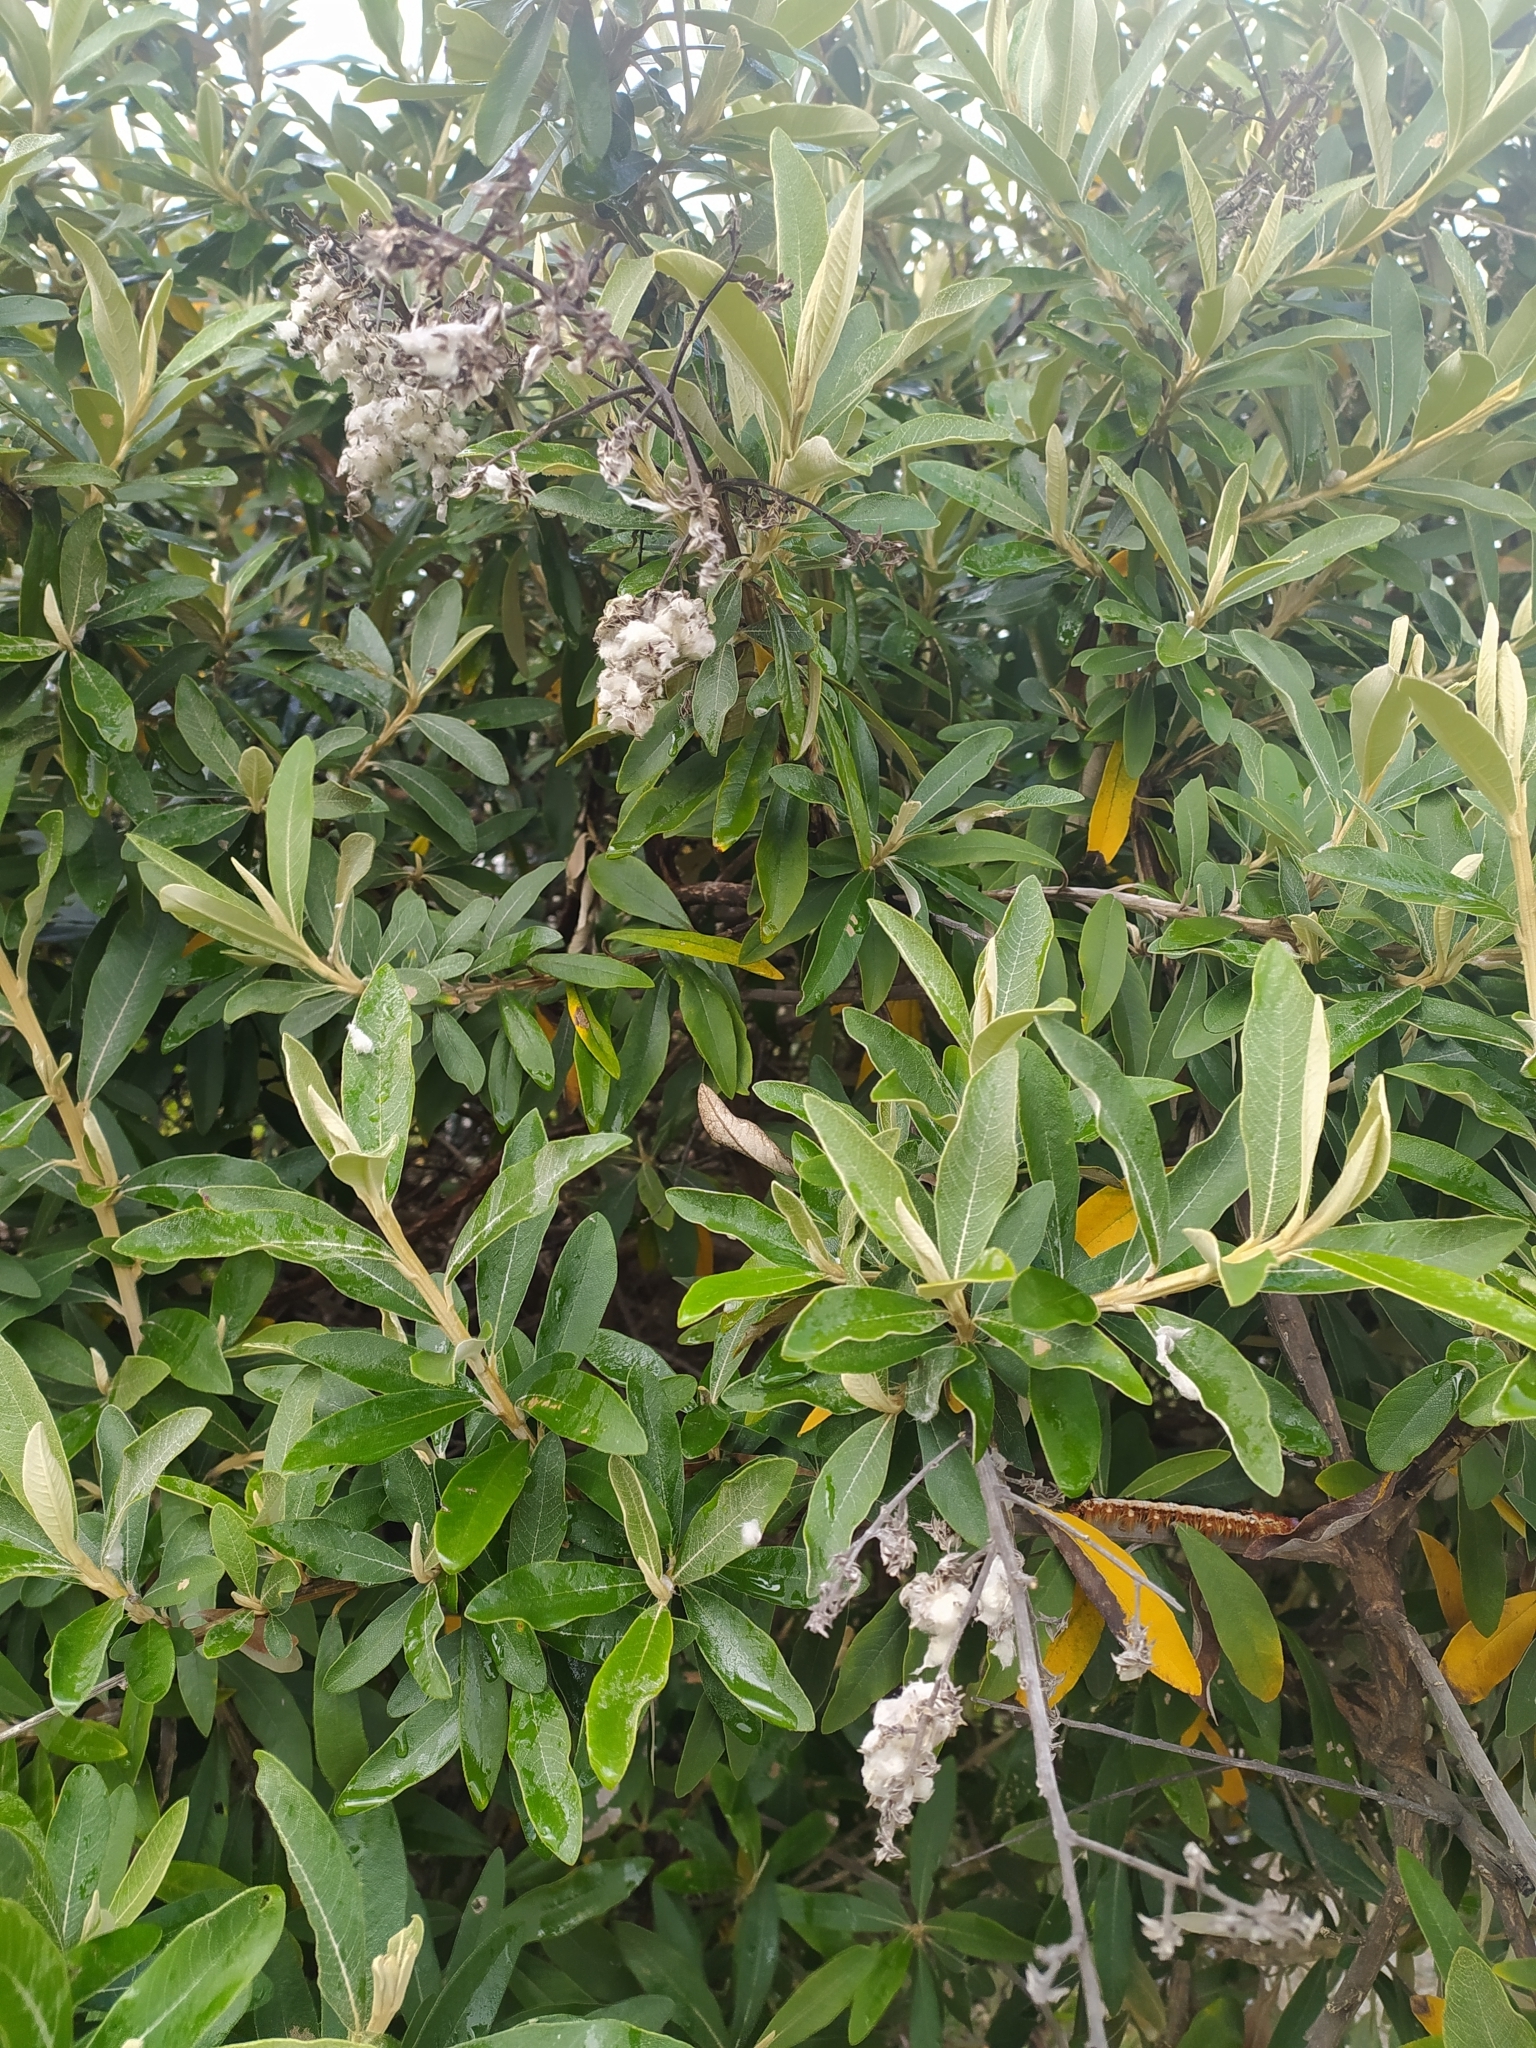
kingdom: Plantae
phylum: Tracheophyta
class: Magnoliopsida
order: Asterales
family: Asteraceae
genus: Tarchonanthus
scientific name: Tarchonanthus littoralis
